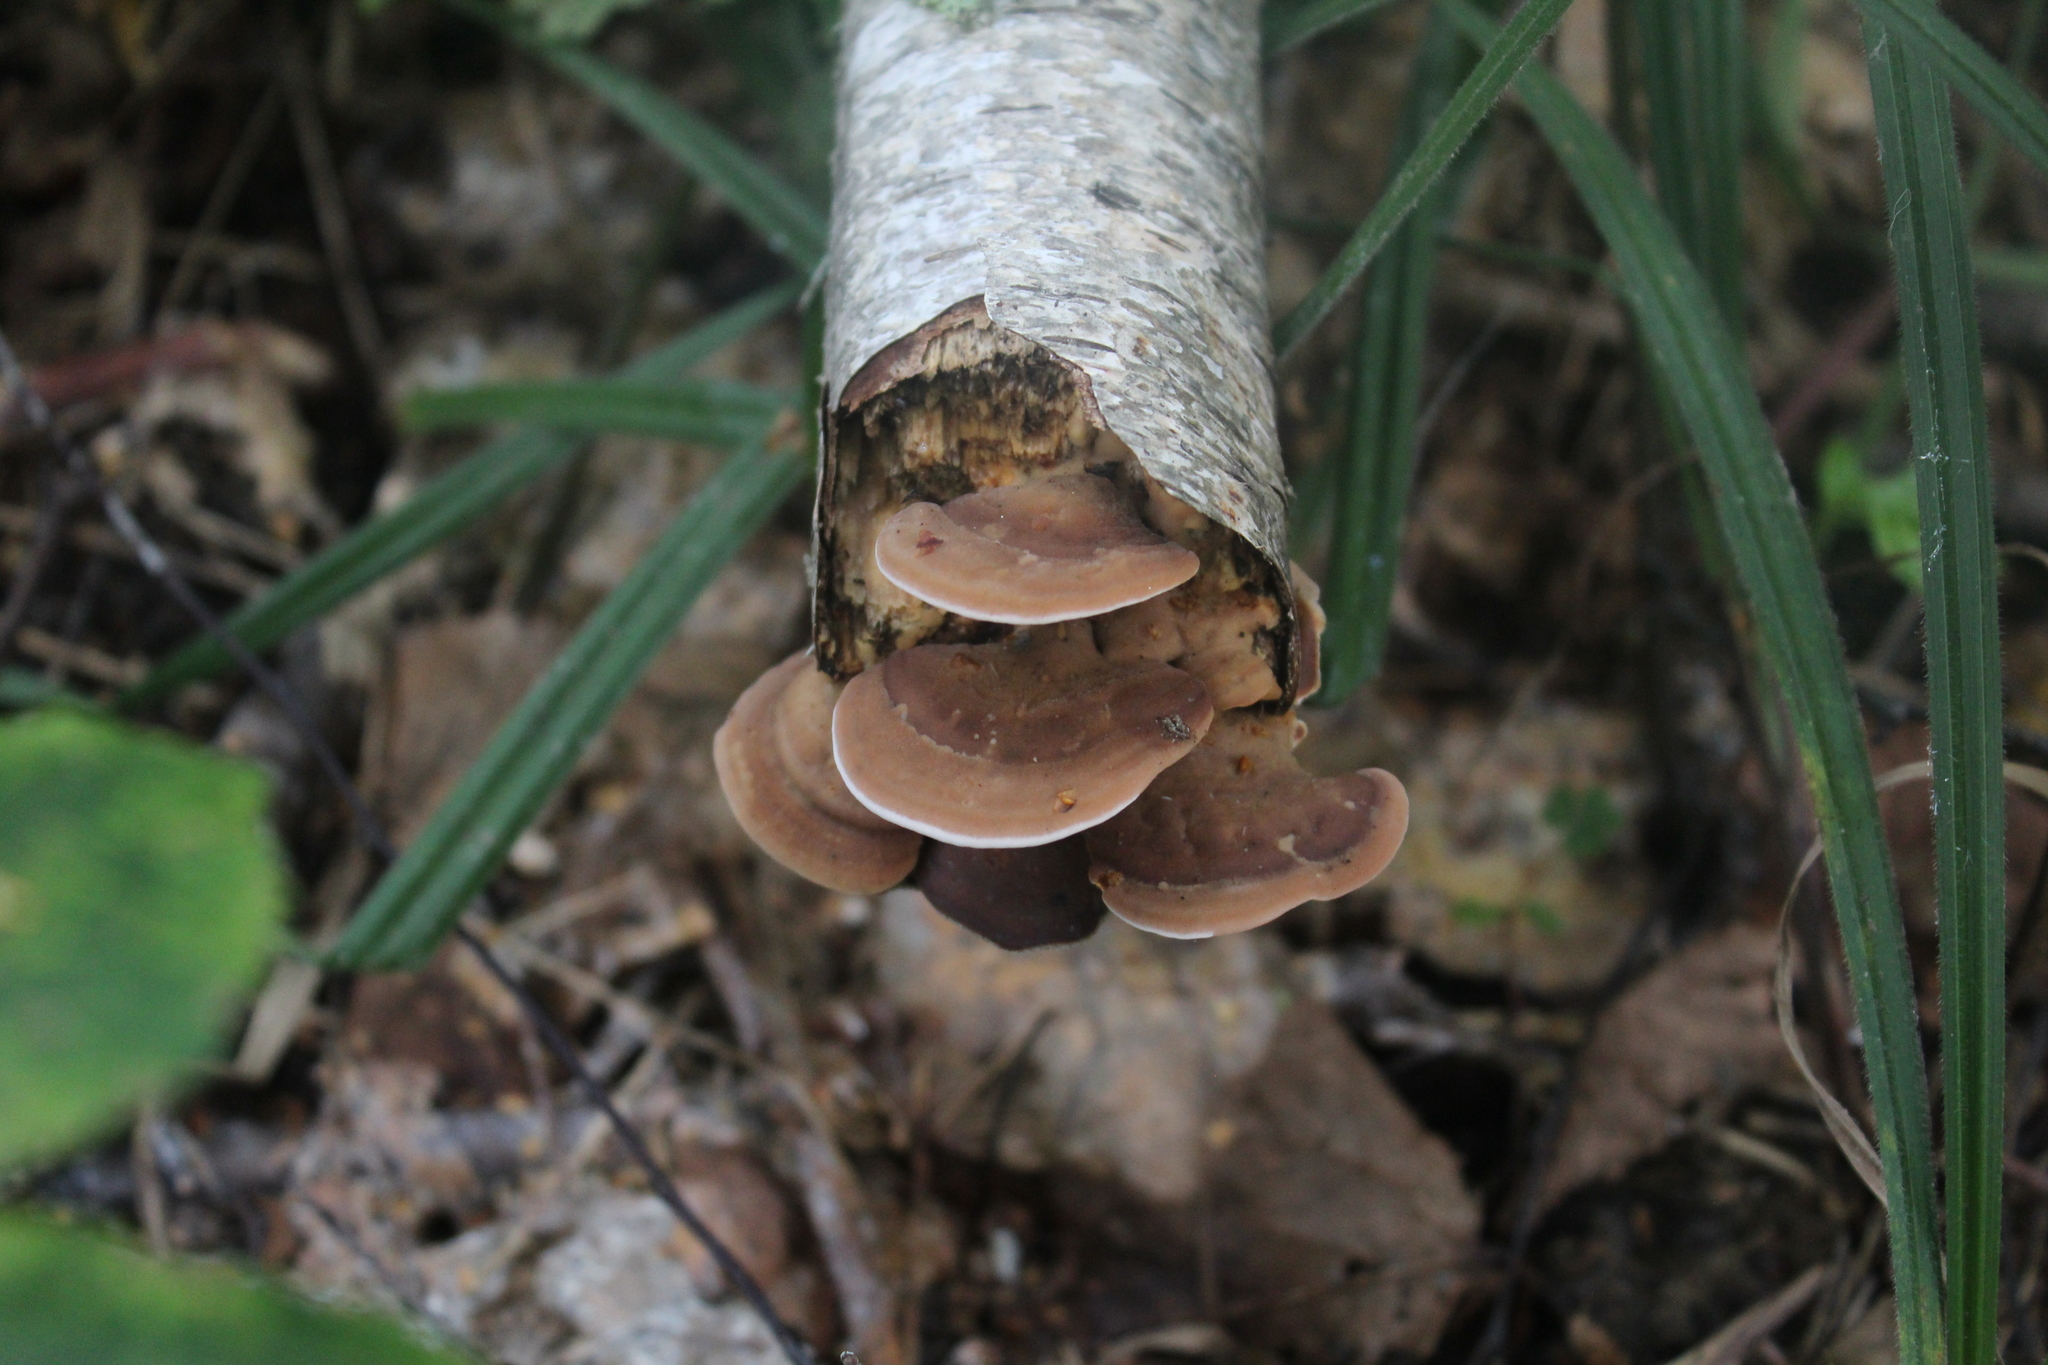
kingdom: Fungi
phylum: Basidiomycota
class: Agaricomycetes
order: Polyporales
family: Steccherinaceae
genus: Metuloidea
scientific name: Metuloidea fragrans
